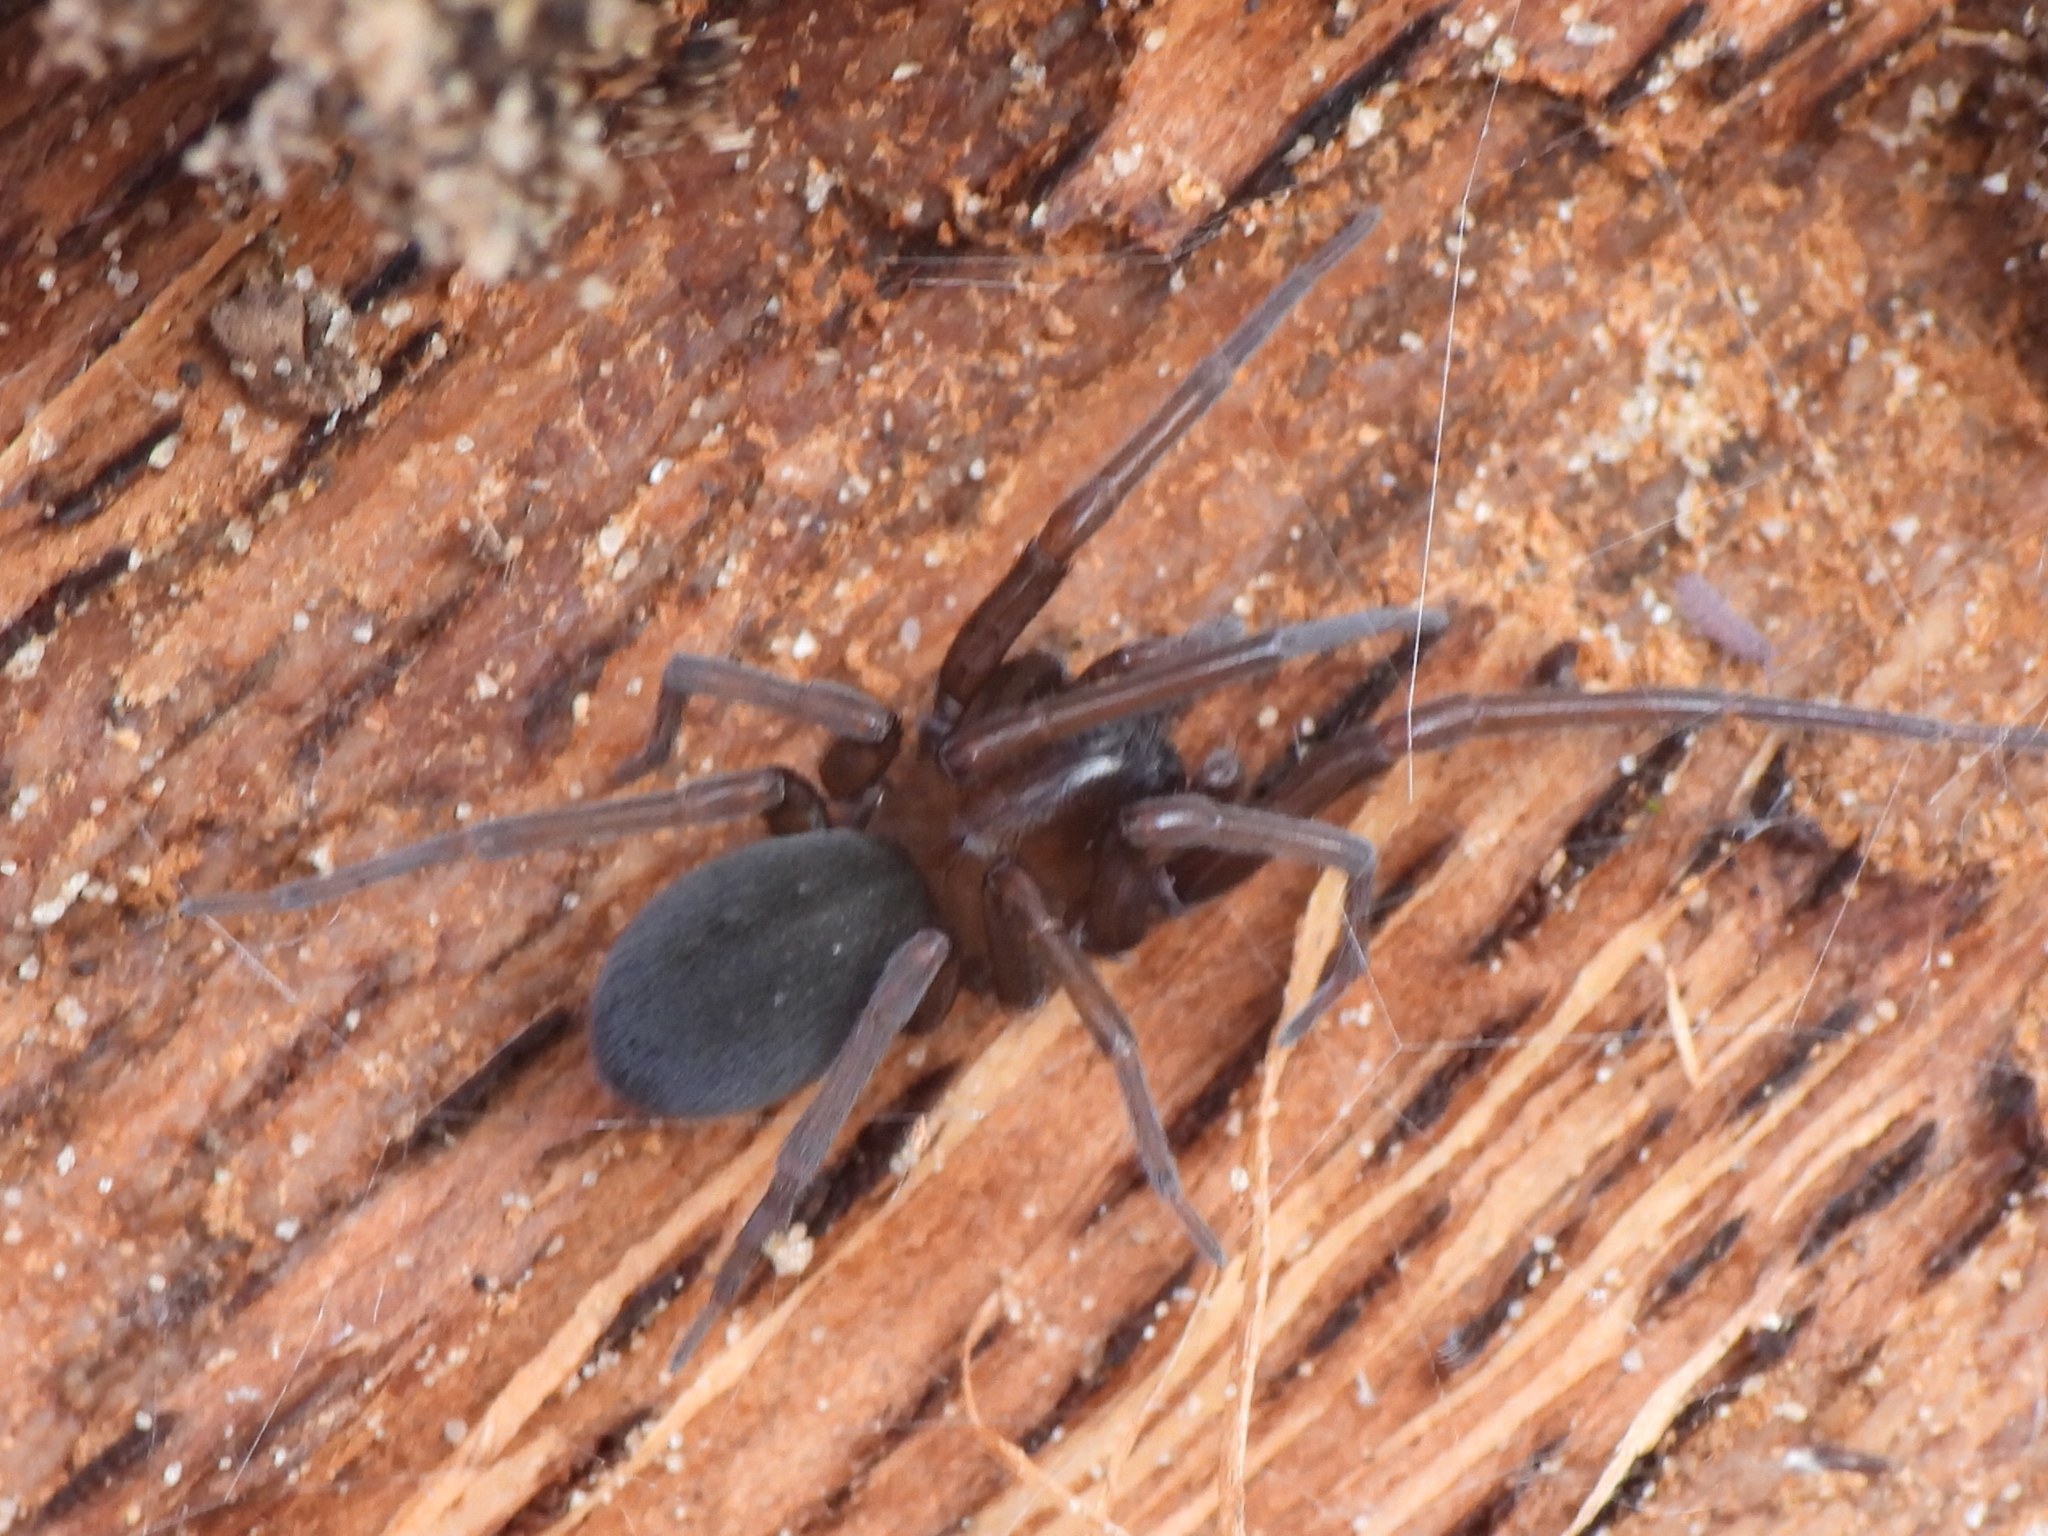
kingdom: Animalia
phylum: Arthropoda
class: Arachnida
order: Araneae
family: Desidae
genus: Metaltella
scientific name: Metaltella simoni
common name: Cribellate spider
